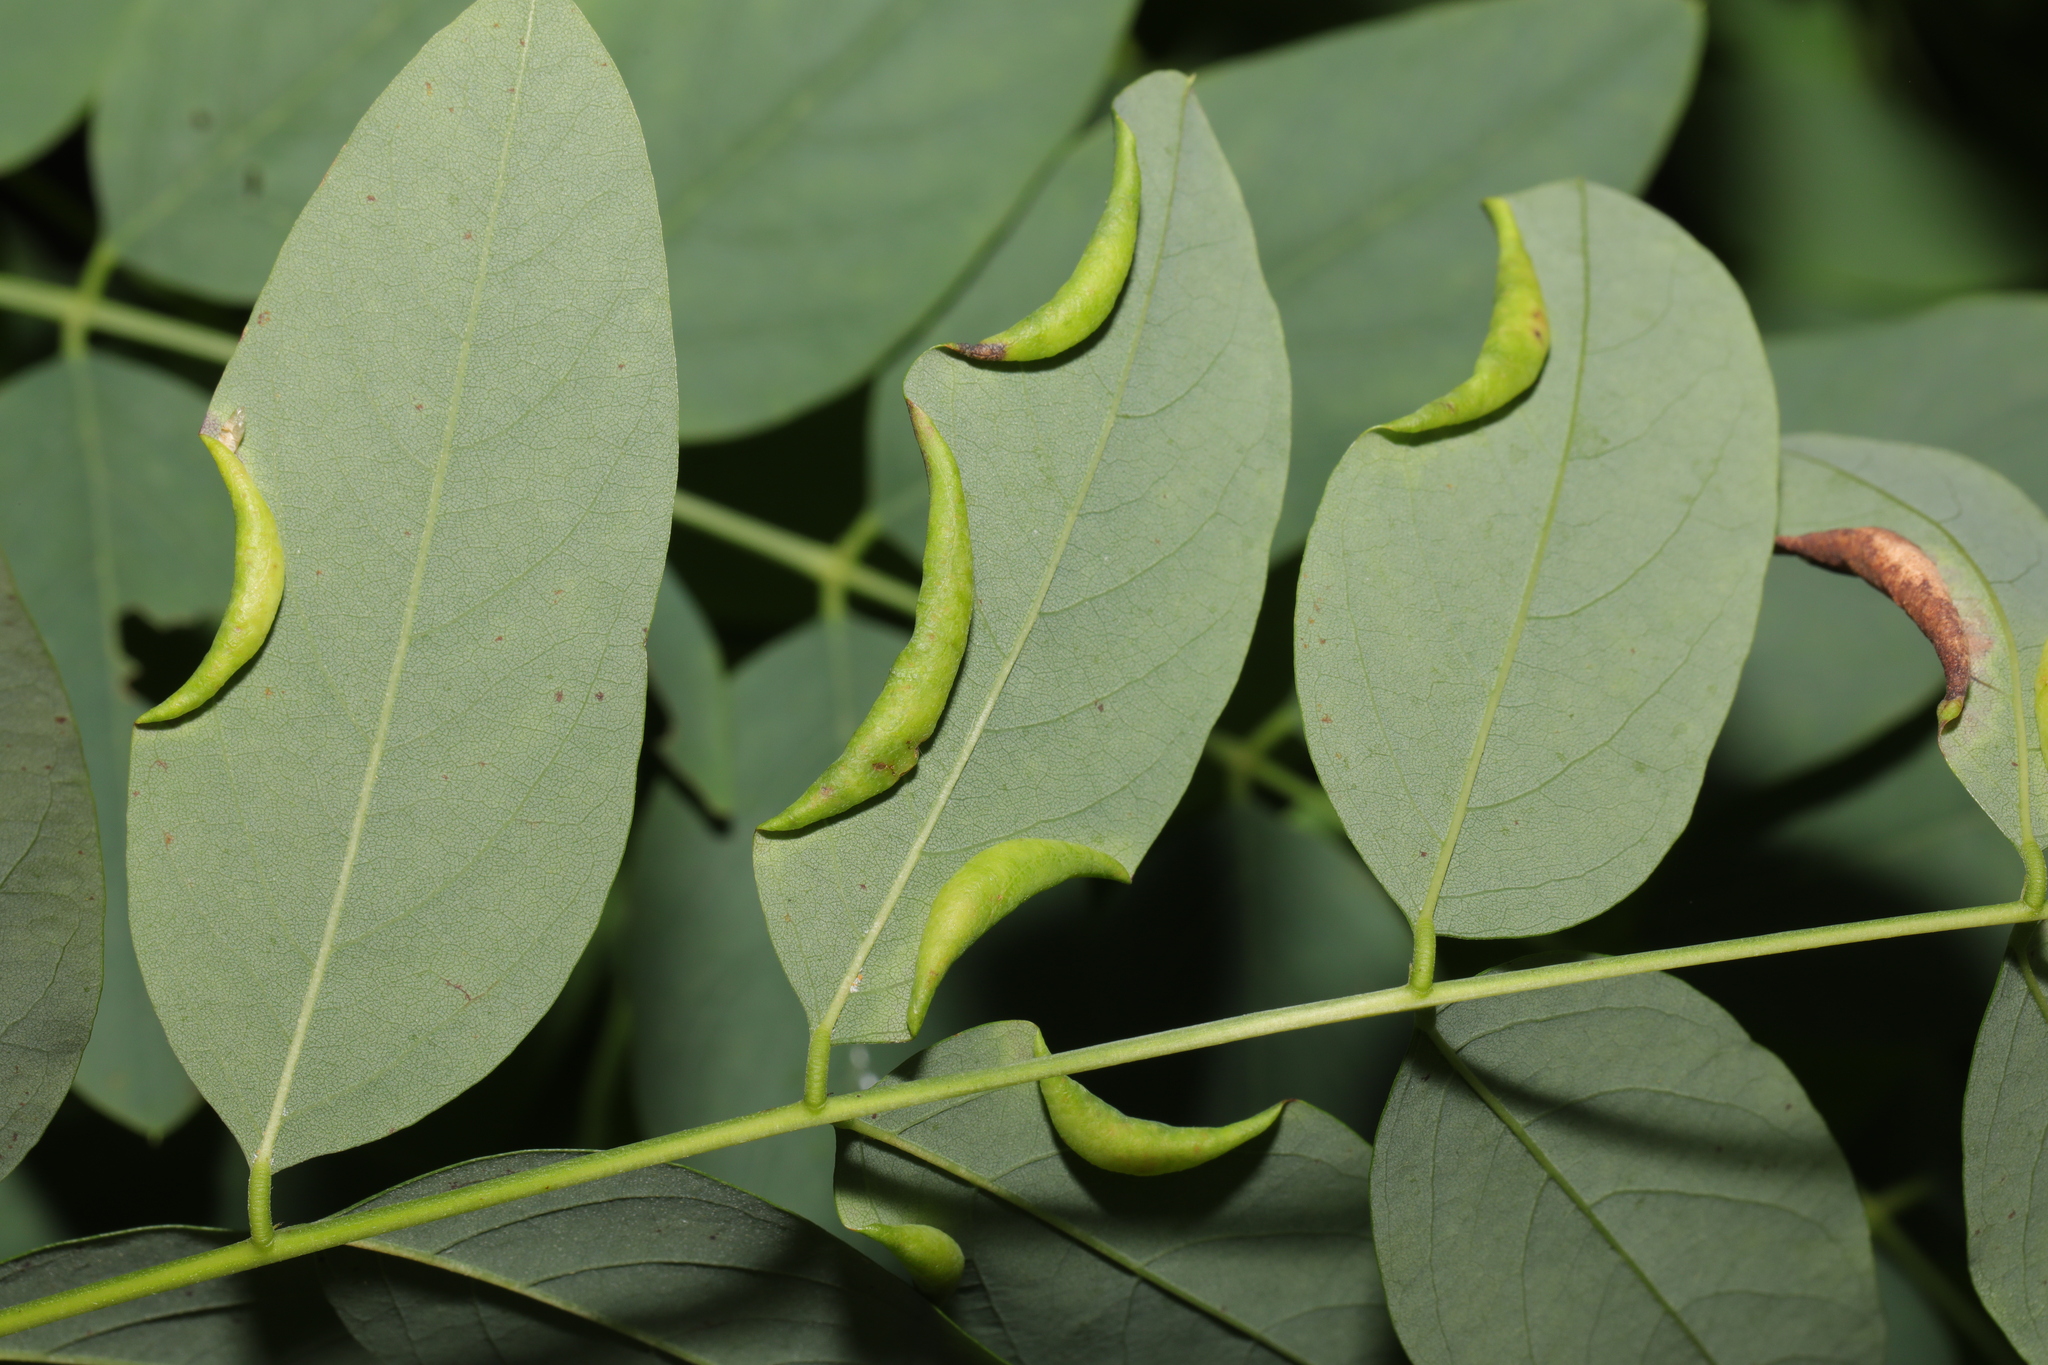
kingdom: Animalia
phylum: Arthropoda
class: Insecta
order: Diptera
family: Cecidomyiidae
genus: Obolodiplosis
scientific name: Obolodiplosis robiniae
